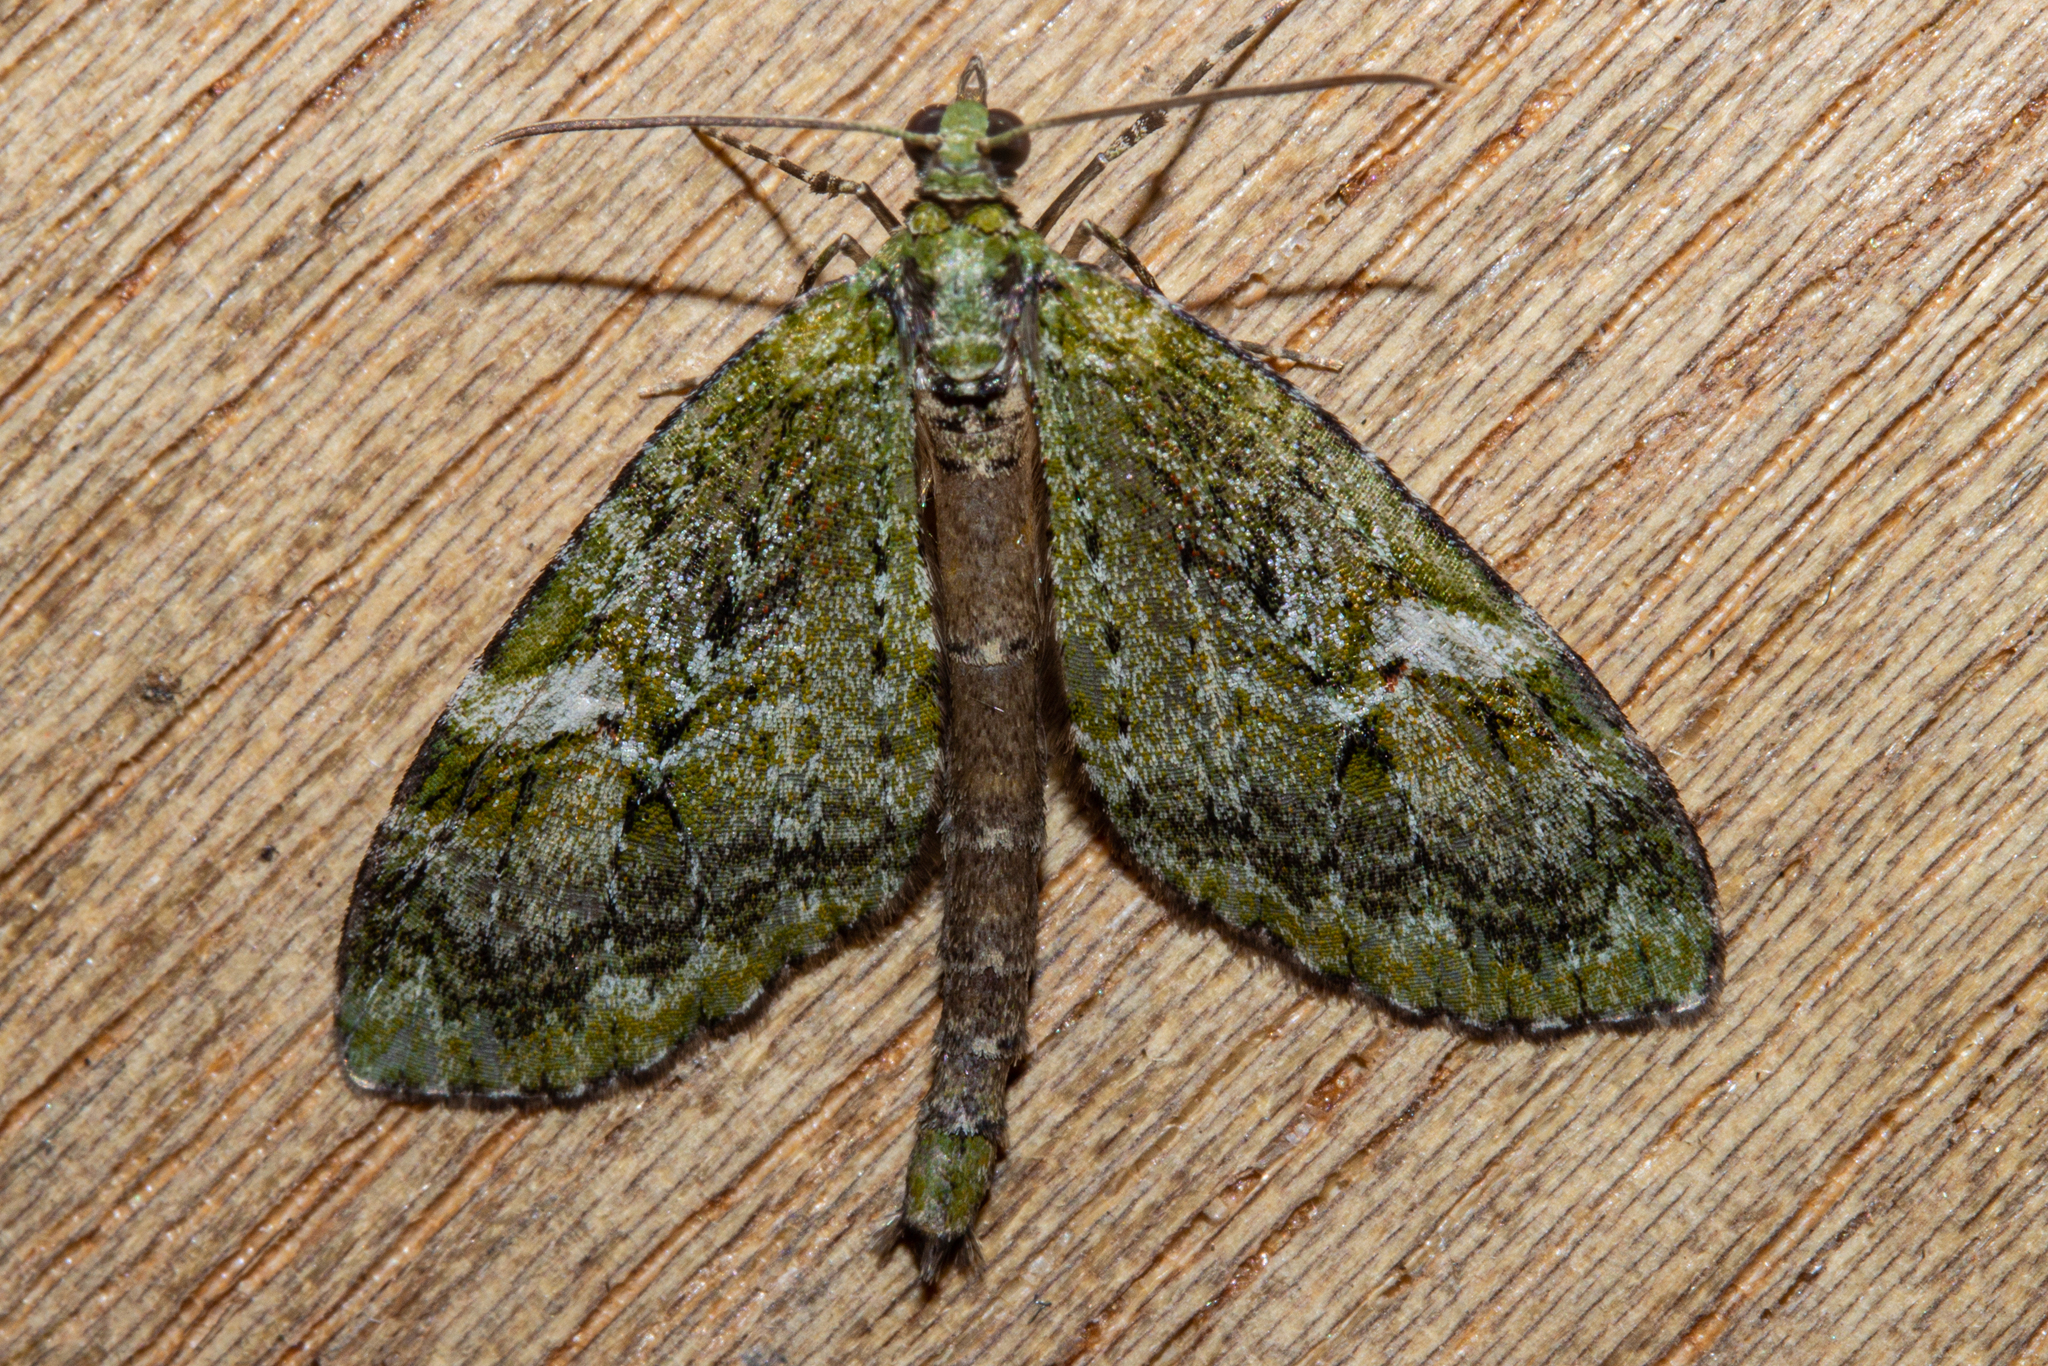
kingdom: Animalia
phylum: Arthropoda
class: Insecta
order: Lepidoptera
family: Geometridae
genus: Tatosoma
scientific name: Tatosoma topea
